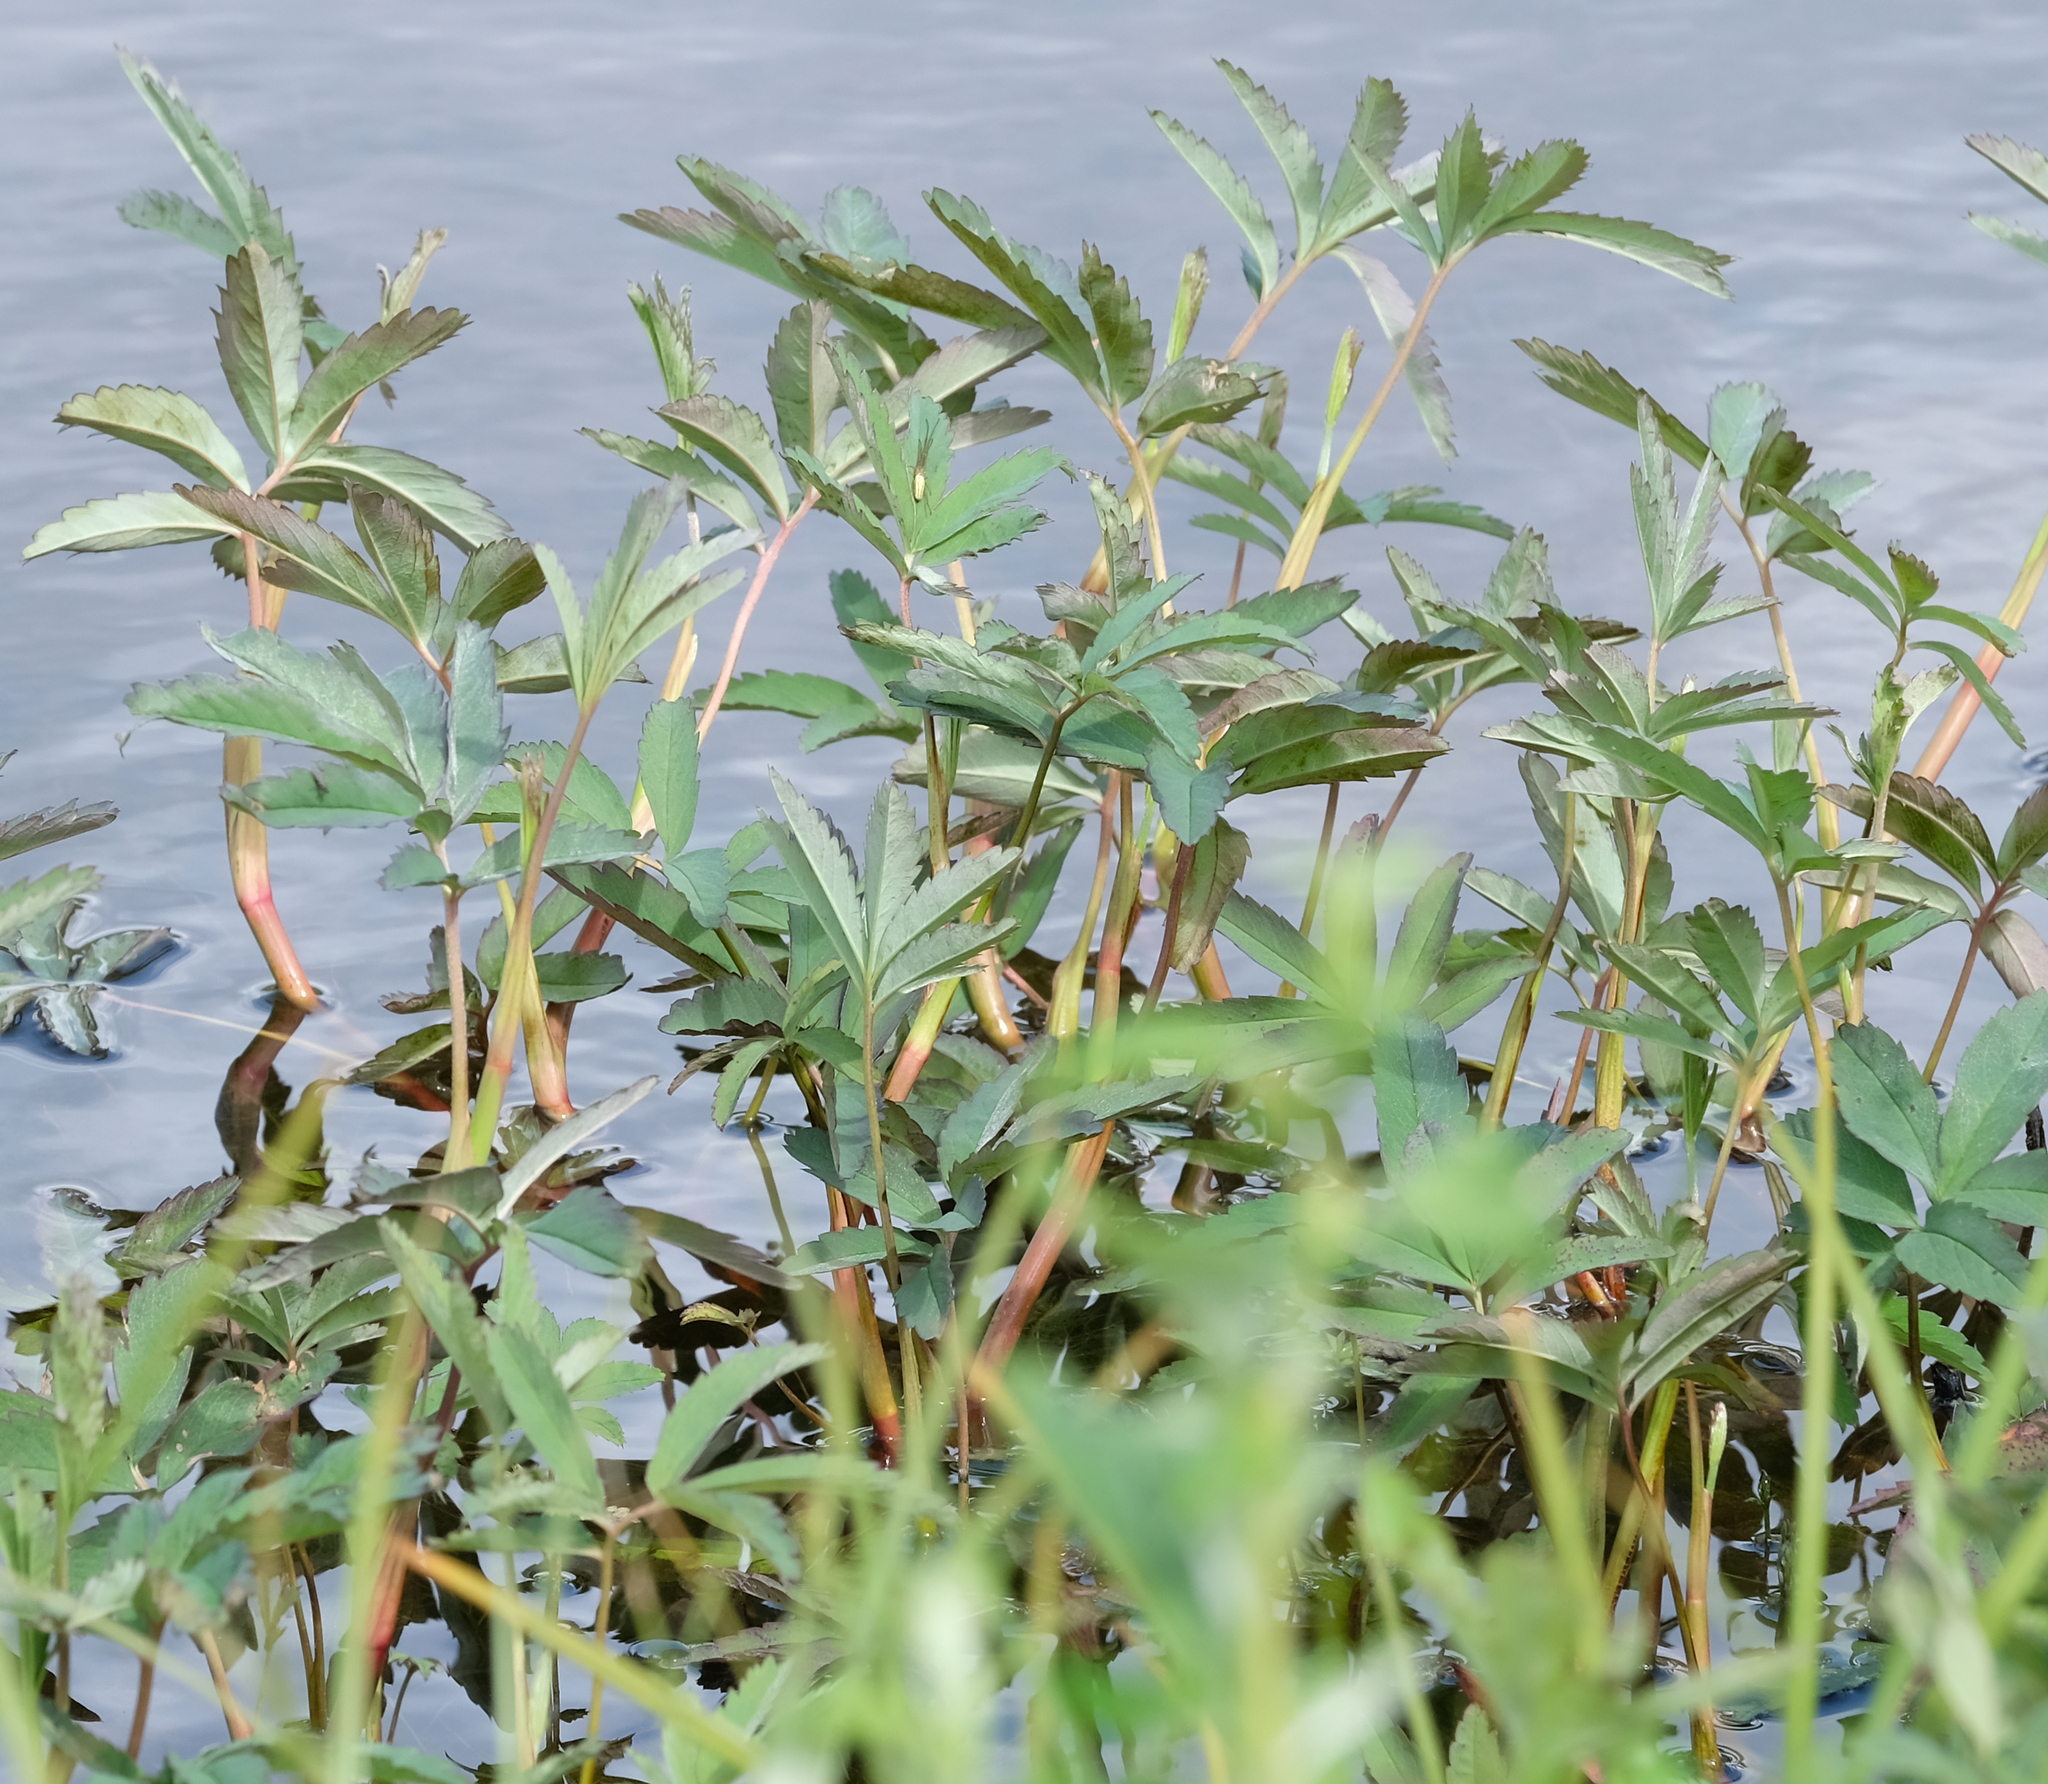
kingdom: Plantae
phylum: Tracheophyta
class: Magnoliopsida
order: Rosales
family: Rosaceae
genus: Comarum
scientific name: Comarum palustre
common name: Marsh cinquefoil
